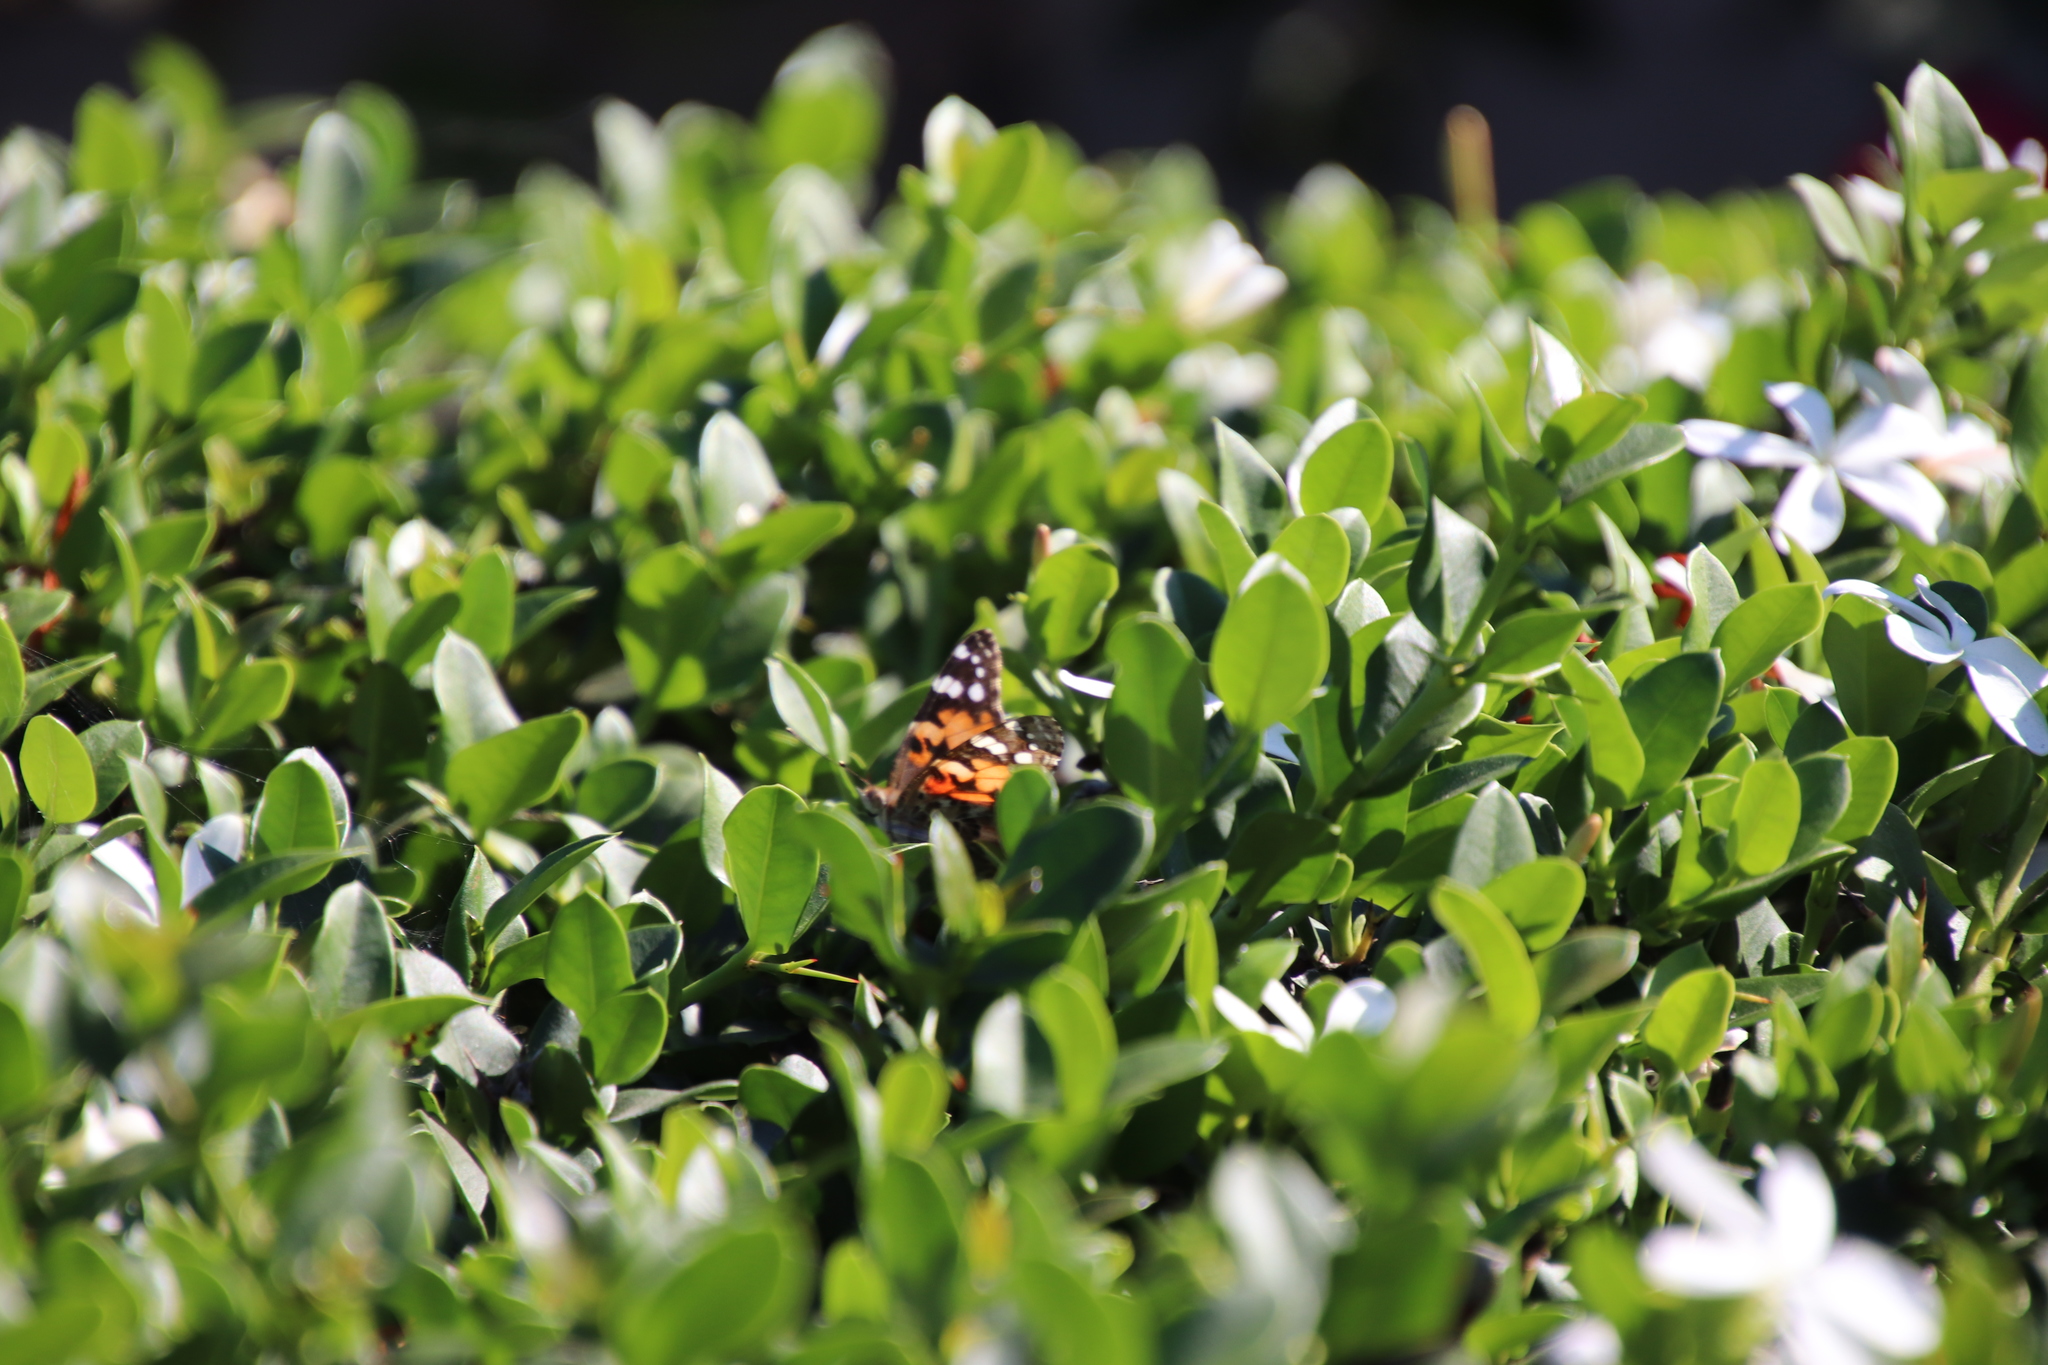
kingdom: Animalia
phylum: Arthropoda
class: Insecta
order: Lepidoptera
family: Nymphalidae
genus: Vanessa
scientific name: Vanessa cardui
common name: Painted lady
